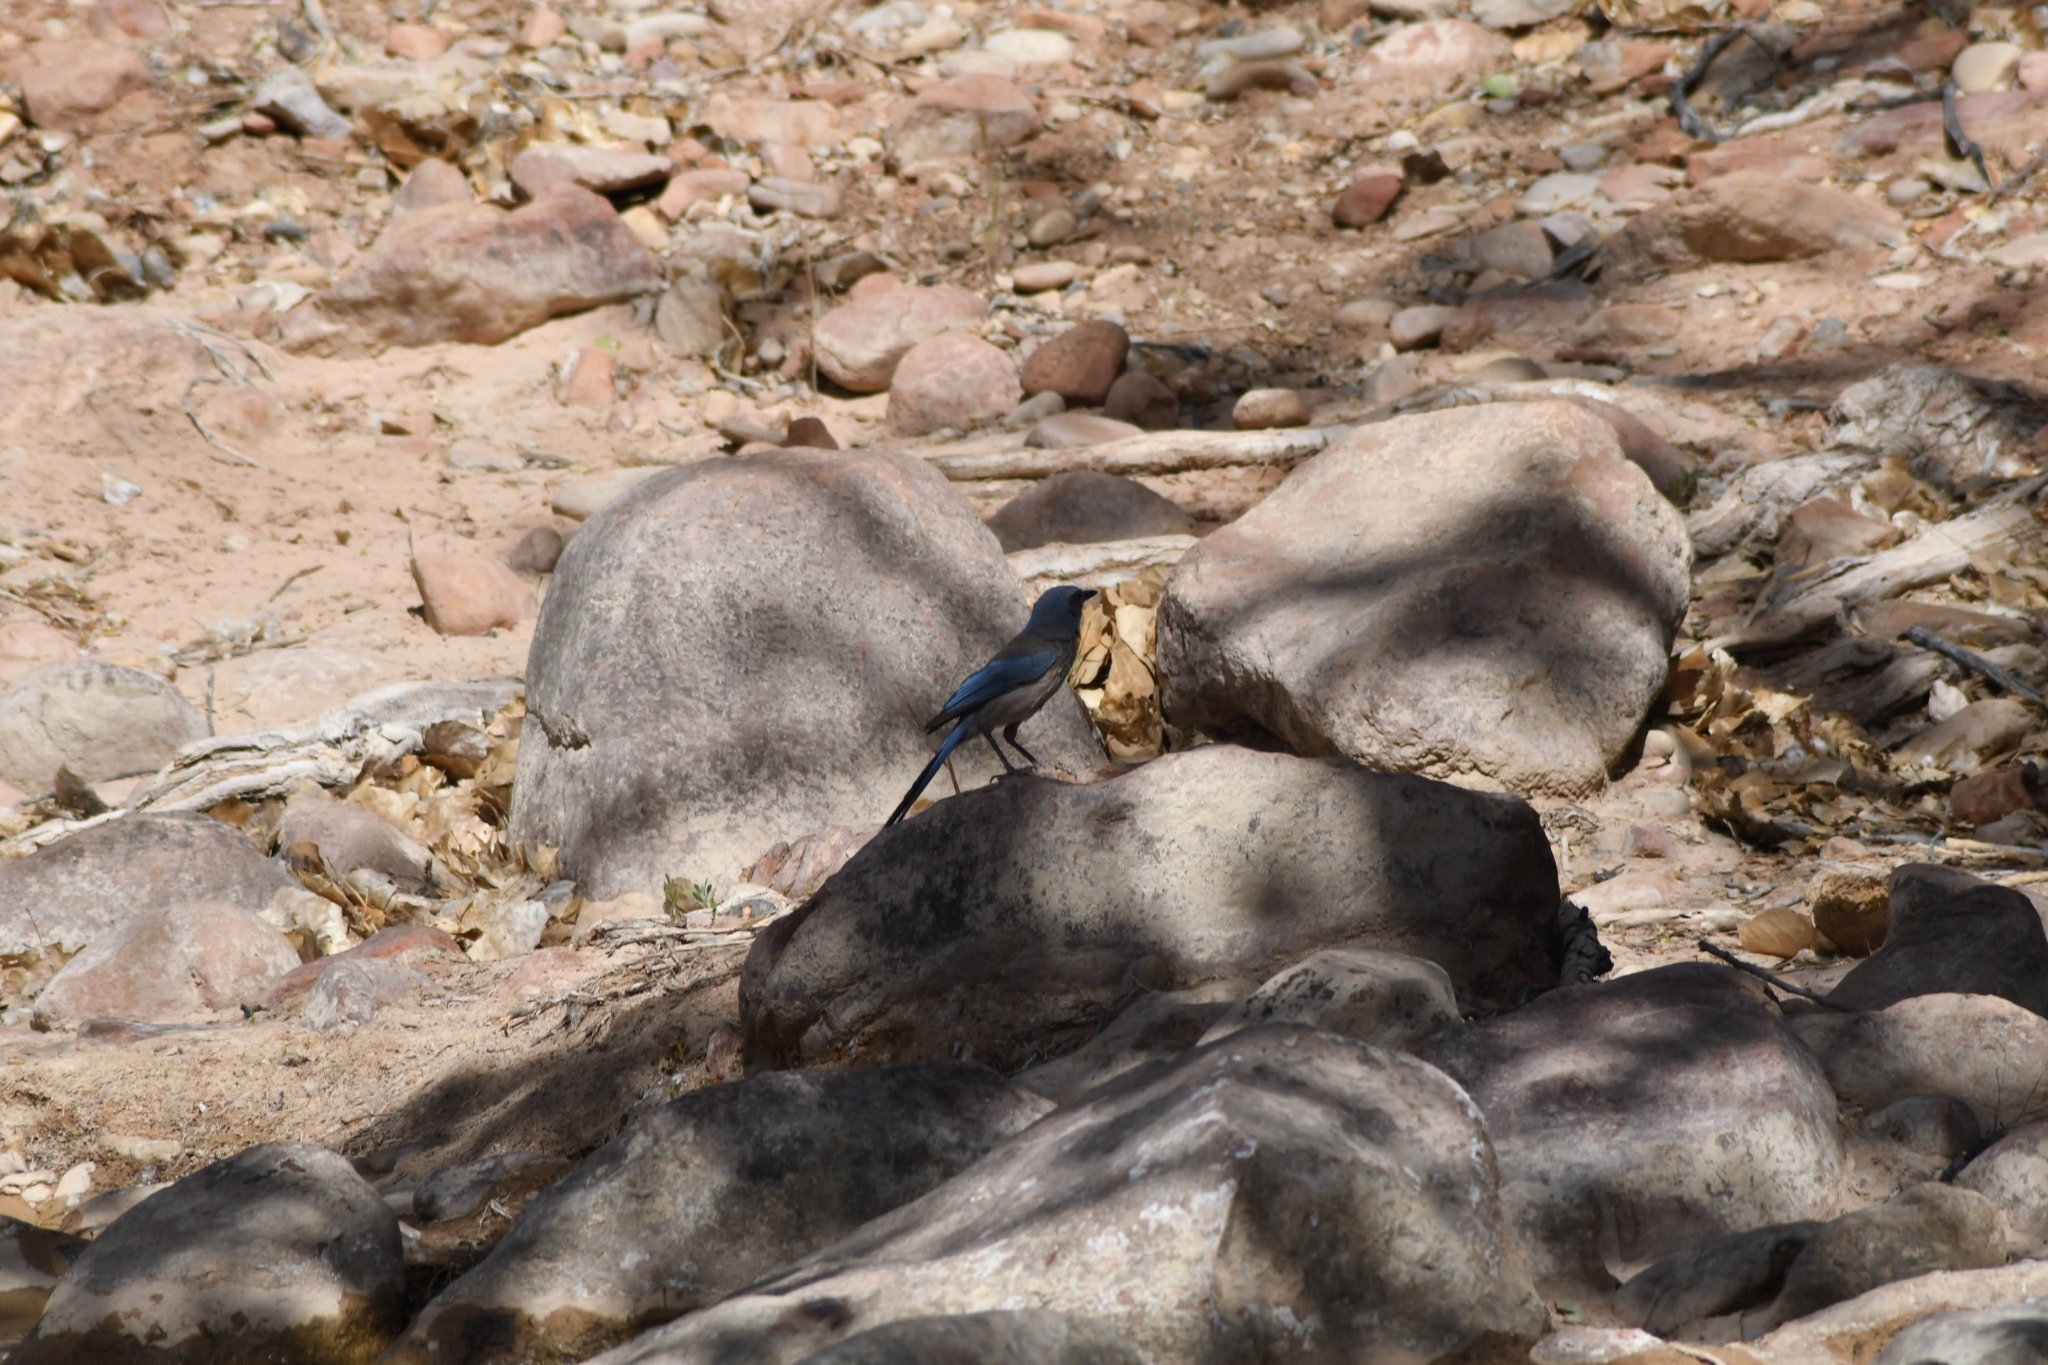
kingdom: Animalia
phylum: Chordata
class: Aves
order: Passeriformes
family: Corvidae
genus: Aphelocoma
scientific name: Aphelocoma woodhouseii
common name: Woodhouse's scrub-jay
